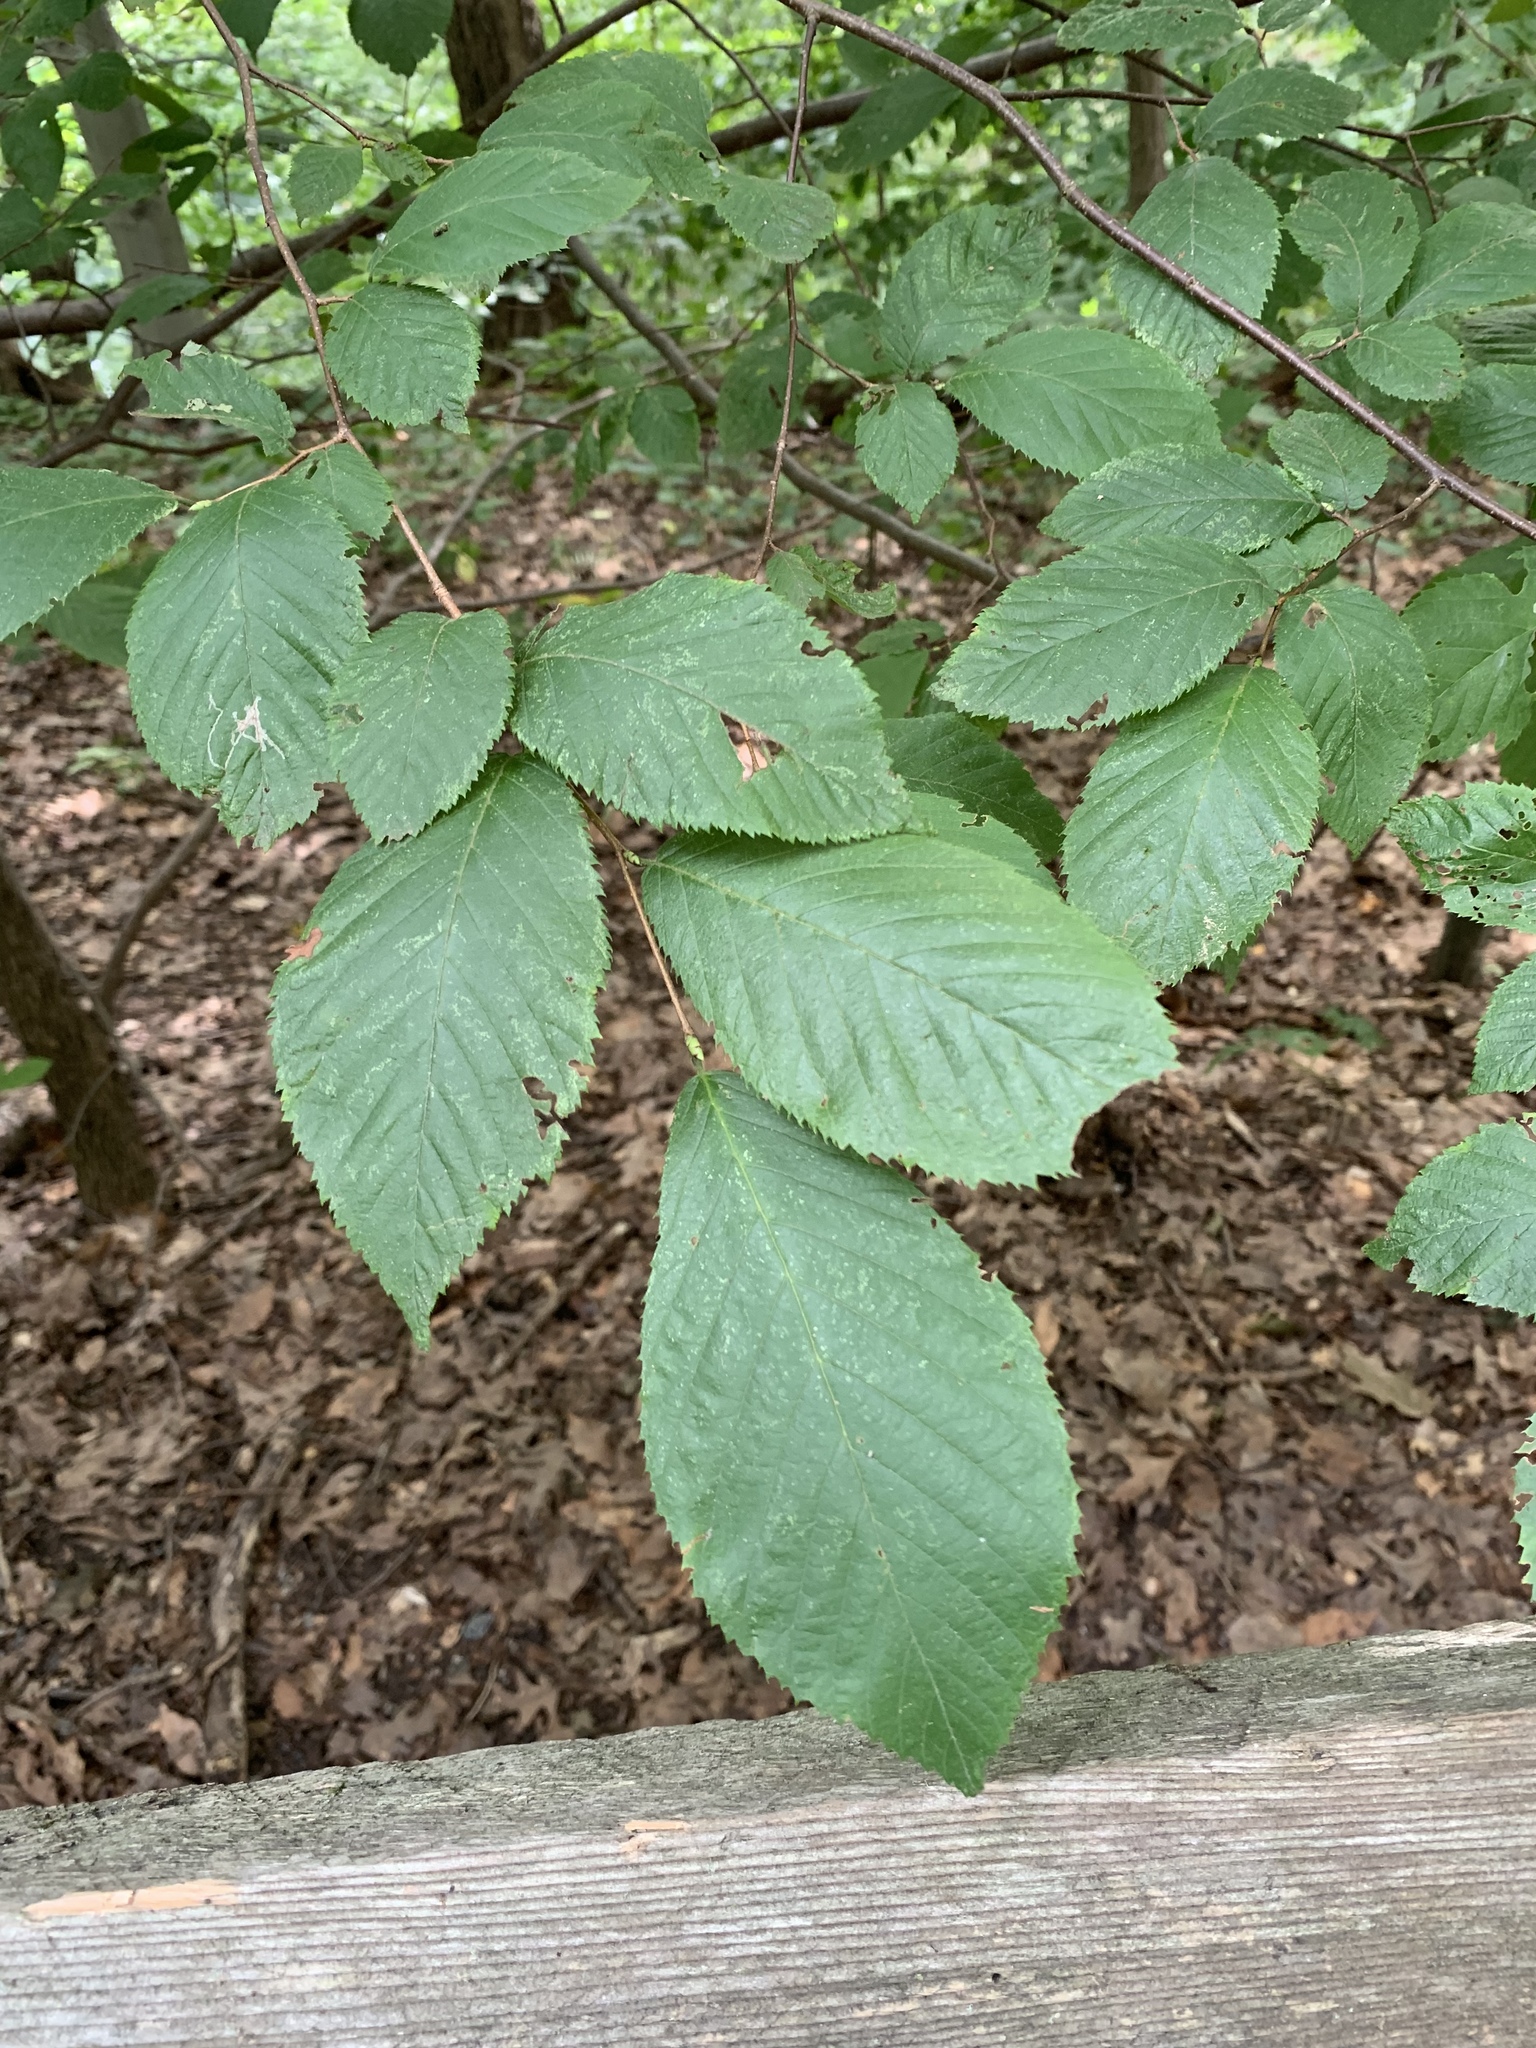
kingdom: Plantae
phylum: Tracheophyta
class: Magnoliopsida
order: Fagales
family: Betulaceae
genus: Ostrya
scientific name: Ostrya virginiana
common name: Ironwood
